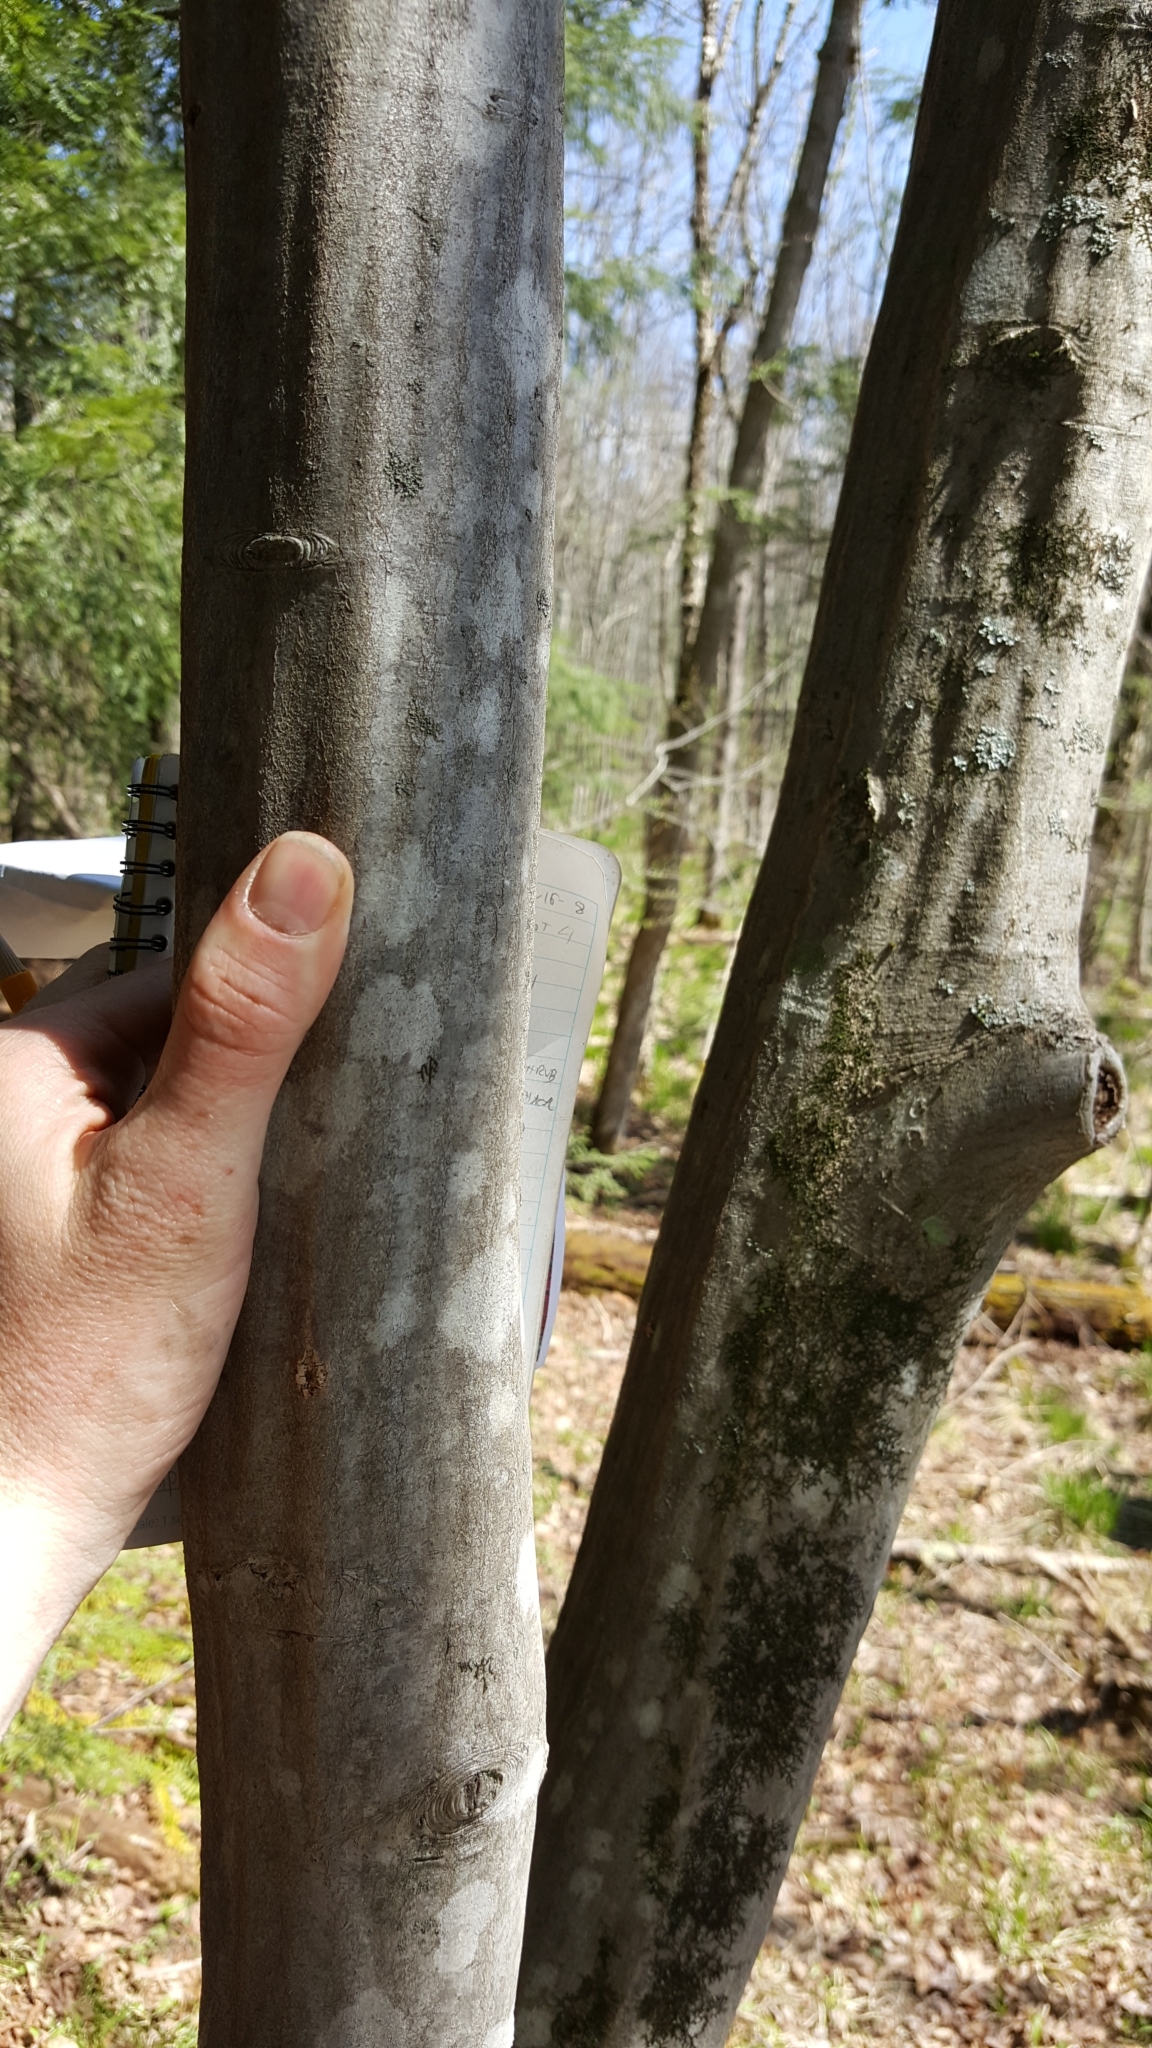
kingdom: Plantae
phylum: Tracheophyta
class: Magnoliopsida
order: Fagales
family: Betulaceae
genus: Carpinus
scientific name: Carpinus caroliniana
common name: American hornbeam
